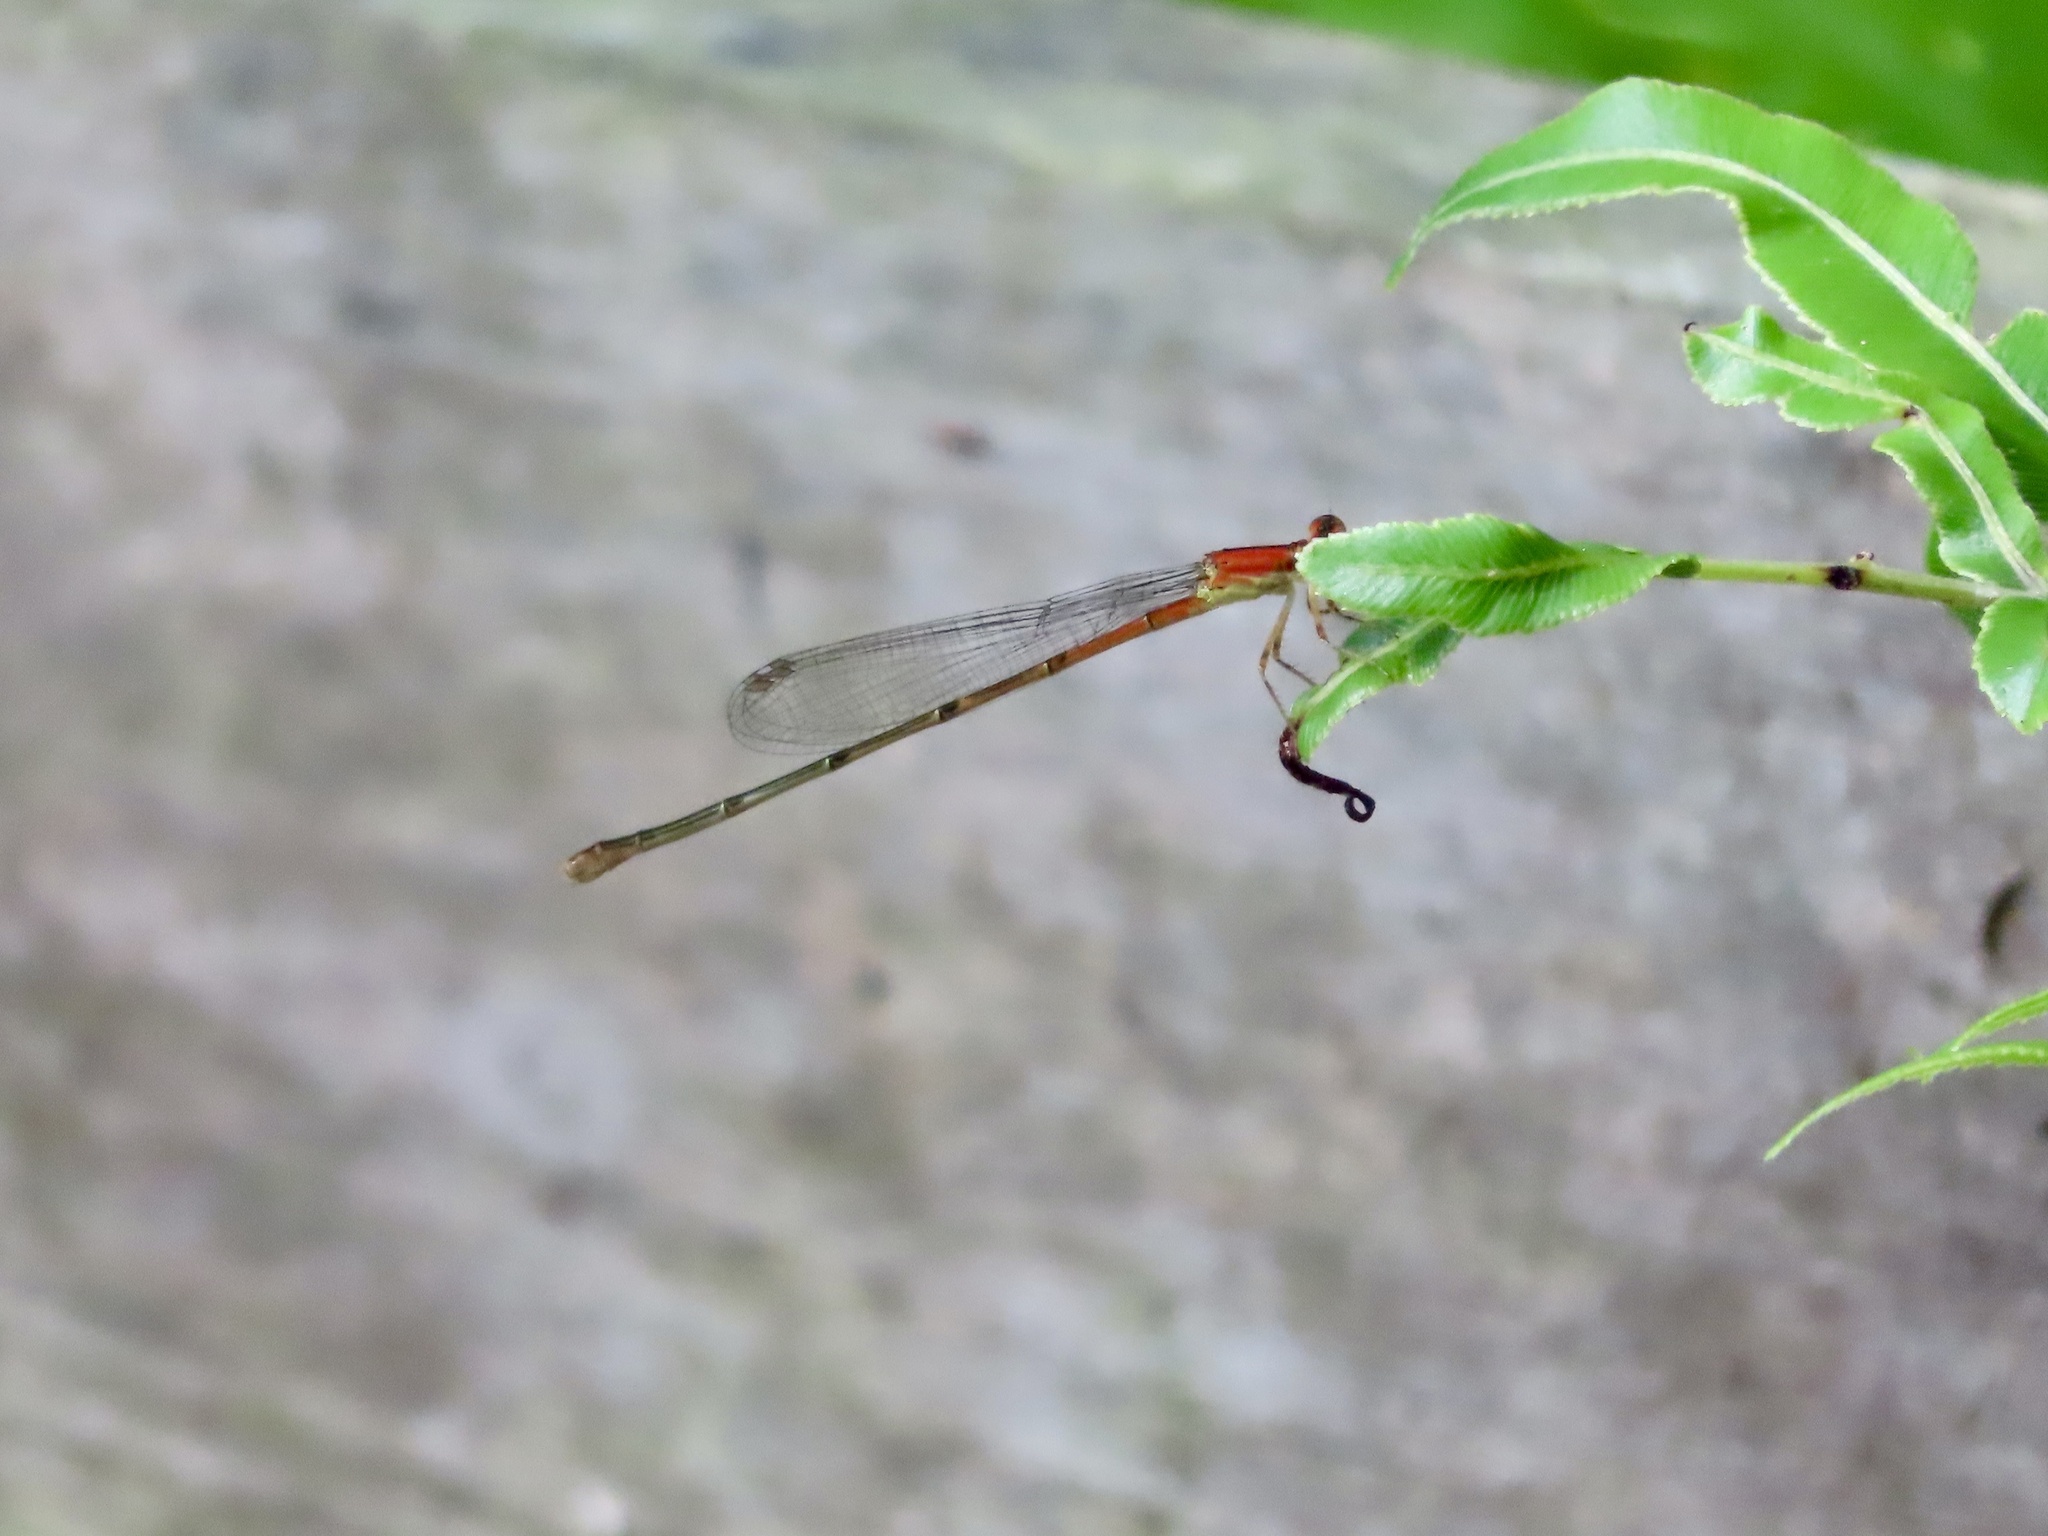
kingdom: Animalia
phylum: Arthropoda
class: Insecta
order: Odonata
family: Coenagrionidae
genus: Ischnura
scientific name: Ischnura prognata
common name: Furtive forktail
